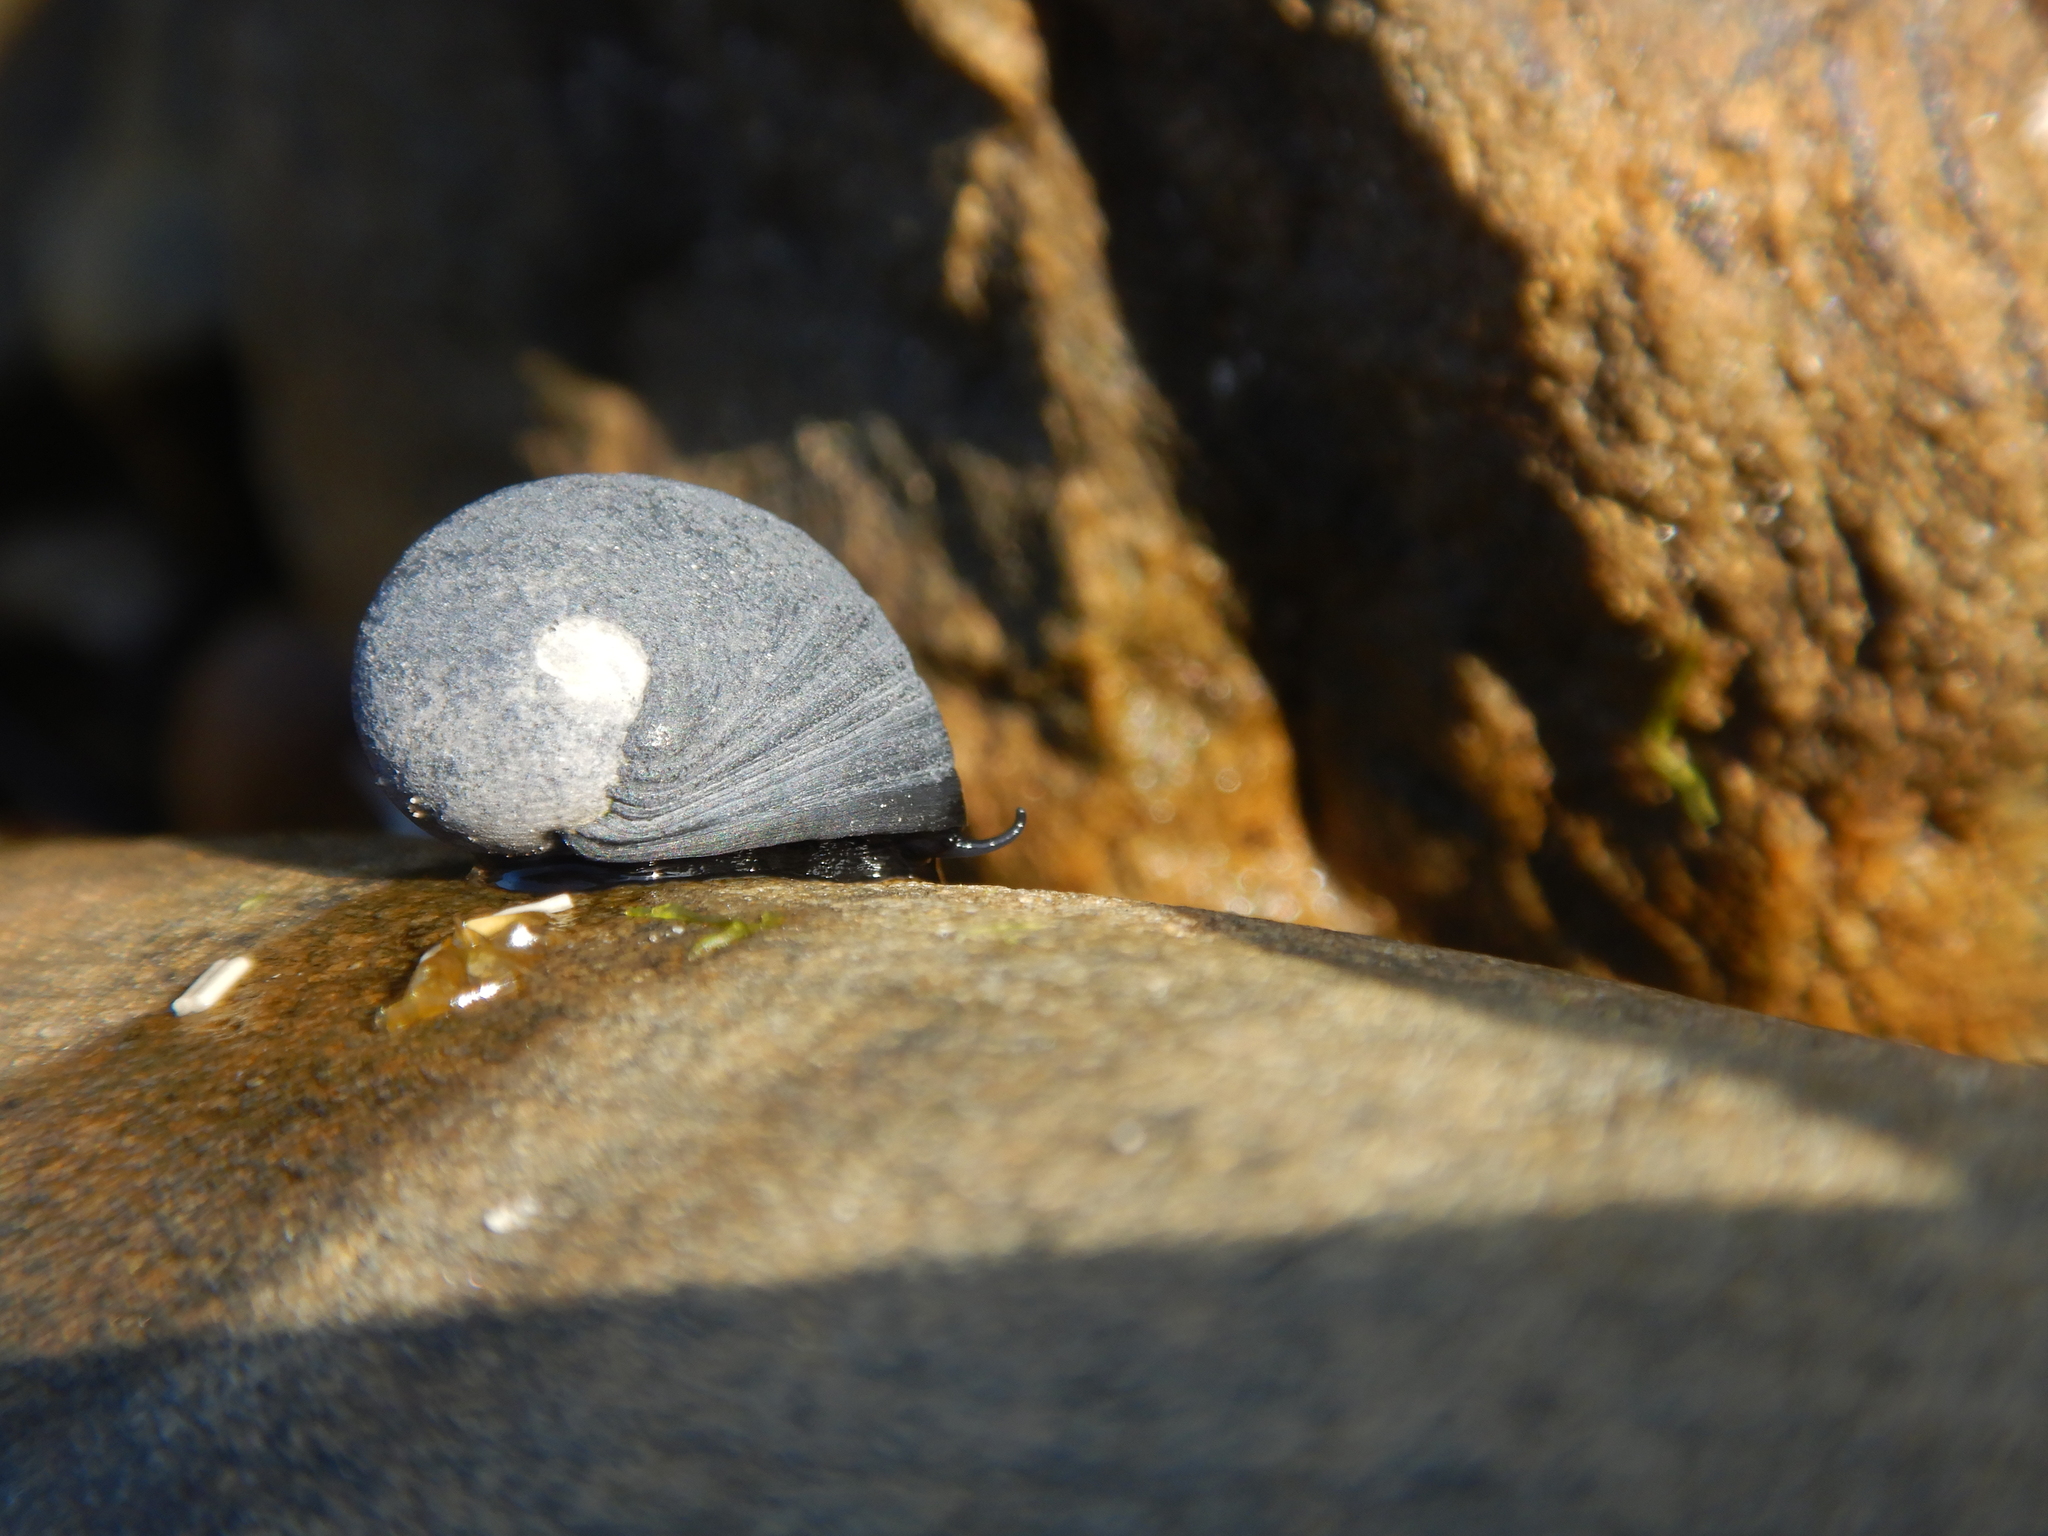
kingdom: Animalia
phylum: Mollusca
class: Gastropoda
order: Cycloneritida
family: Neritidae
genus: Nerita
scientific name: Nerita atramentosa
